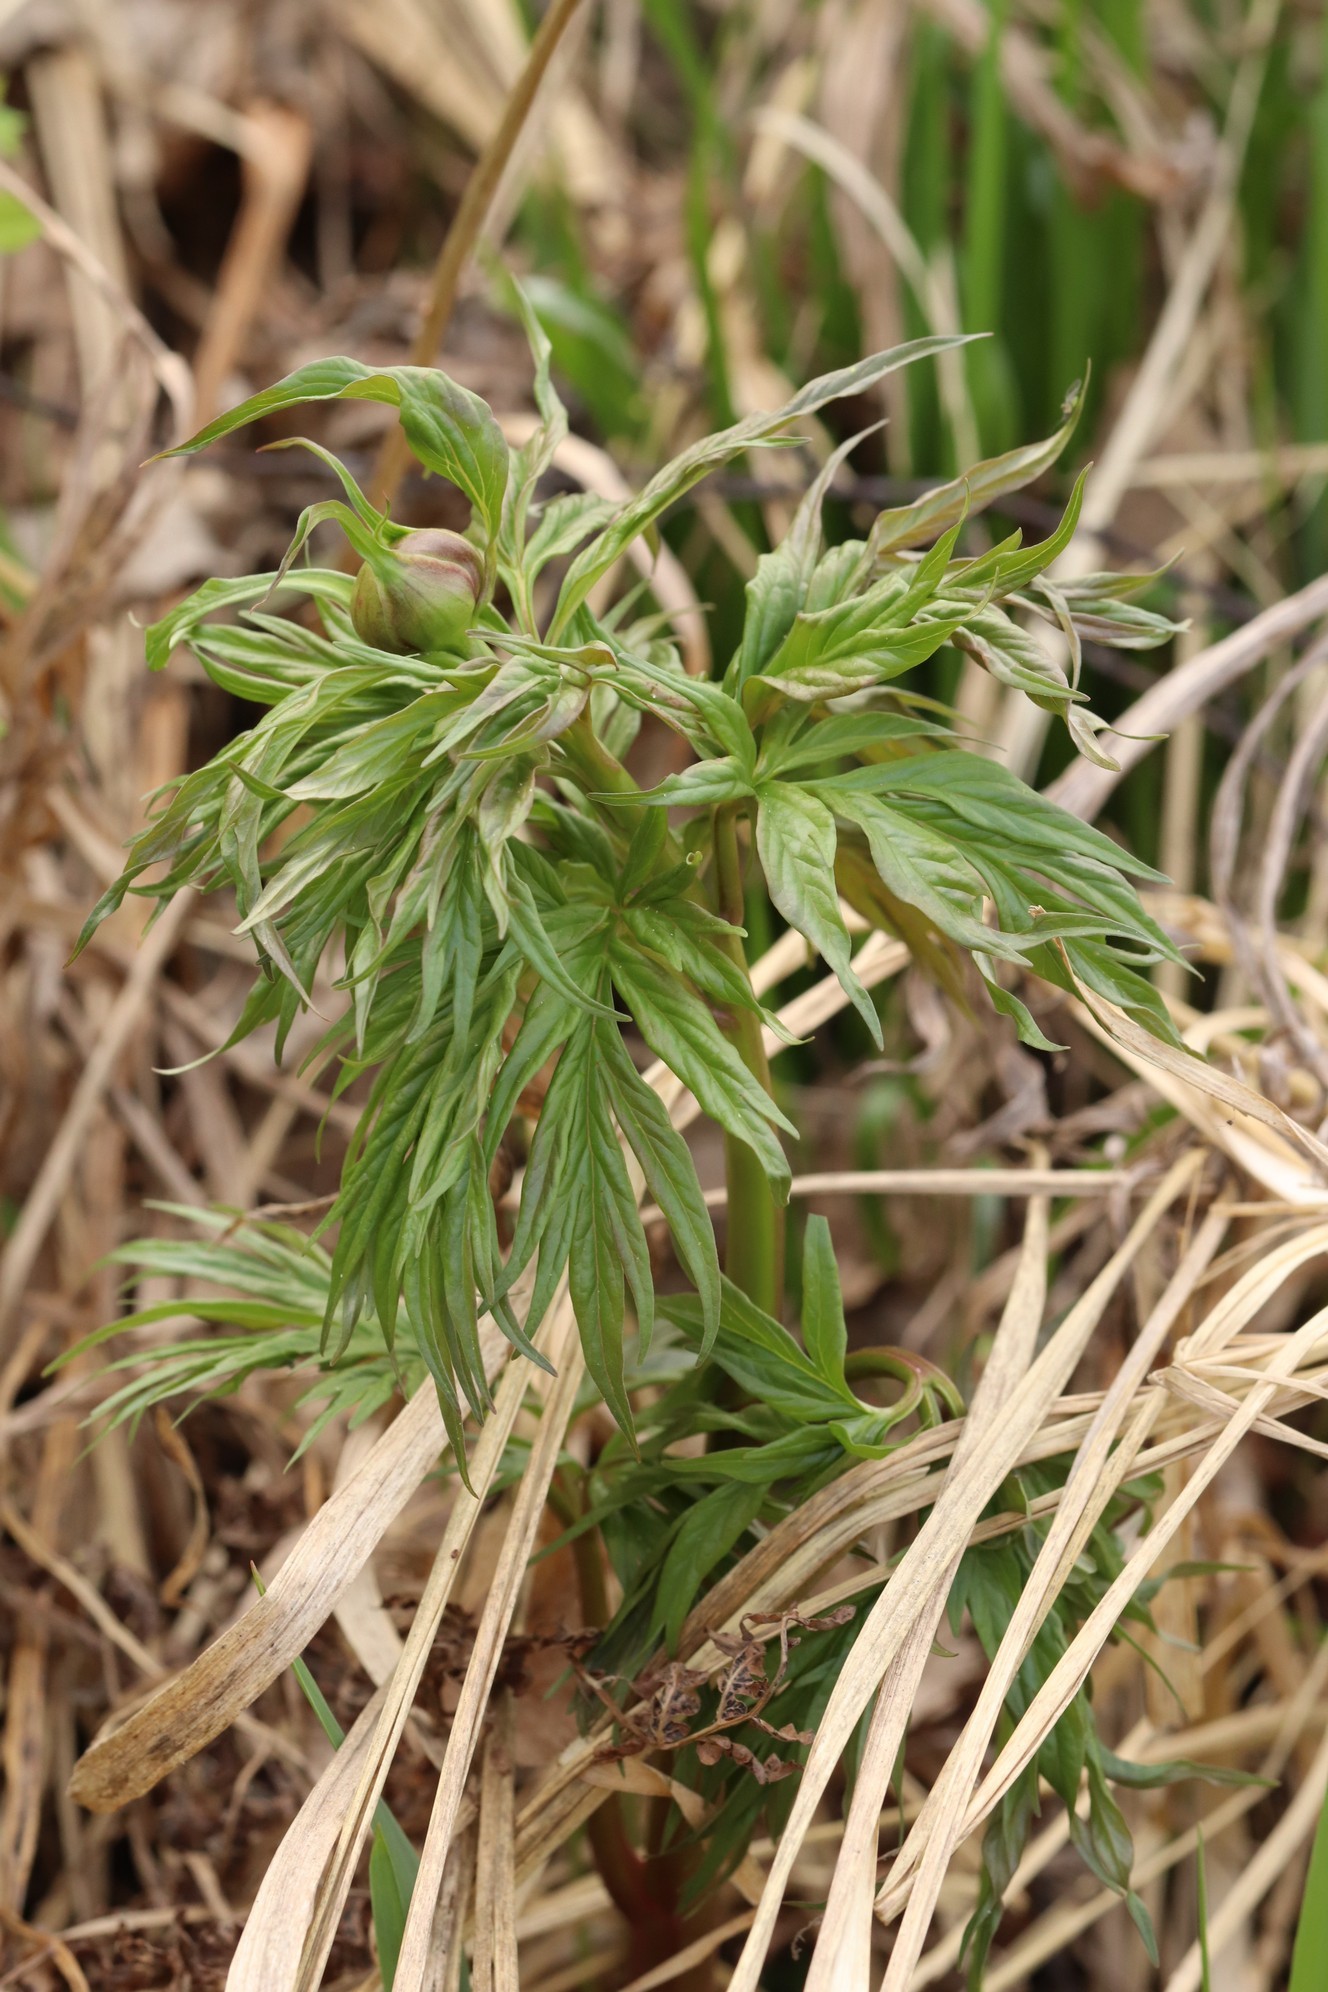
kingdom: Plantae
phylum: Tracheophyta
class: Magnoliopsida
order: Saxifragales
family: Paeoniaceae
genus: Paeonia
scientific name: Paeonia anomala
